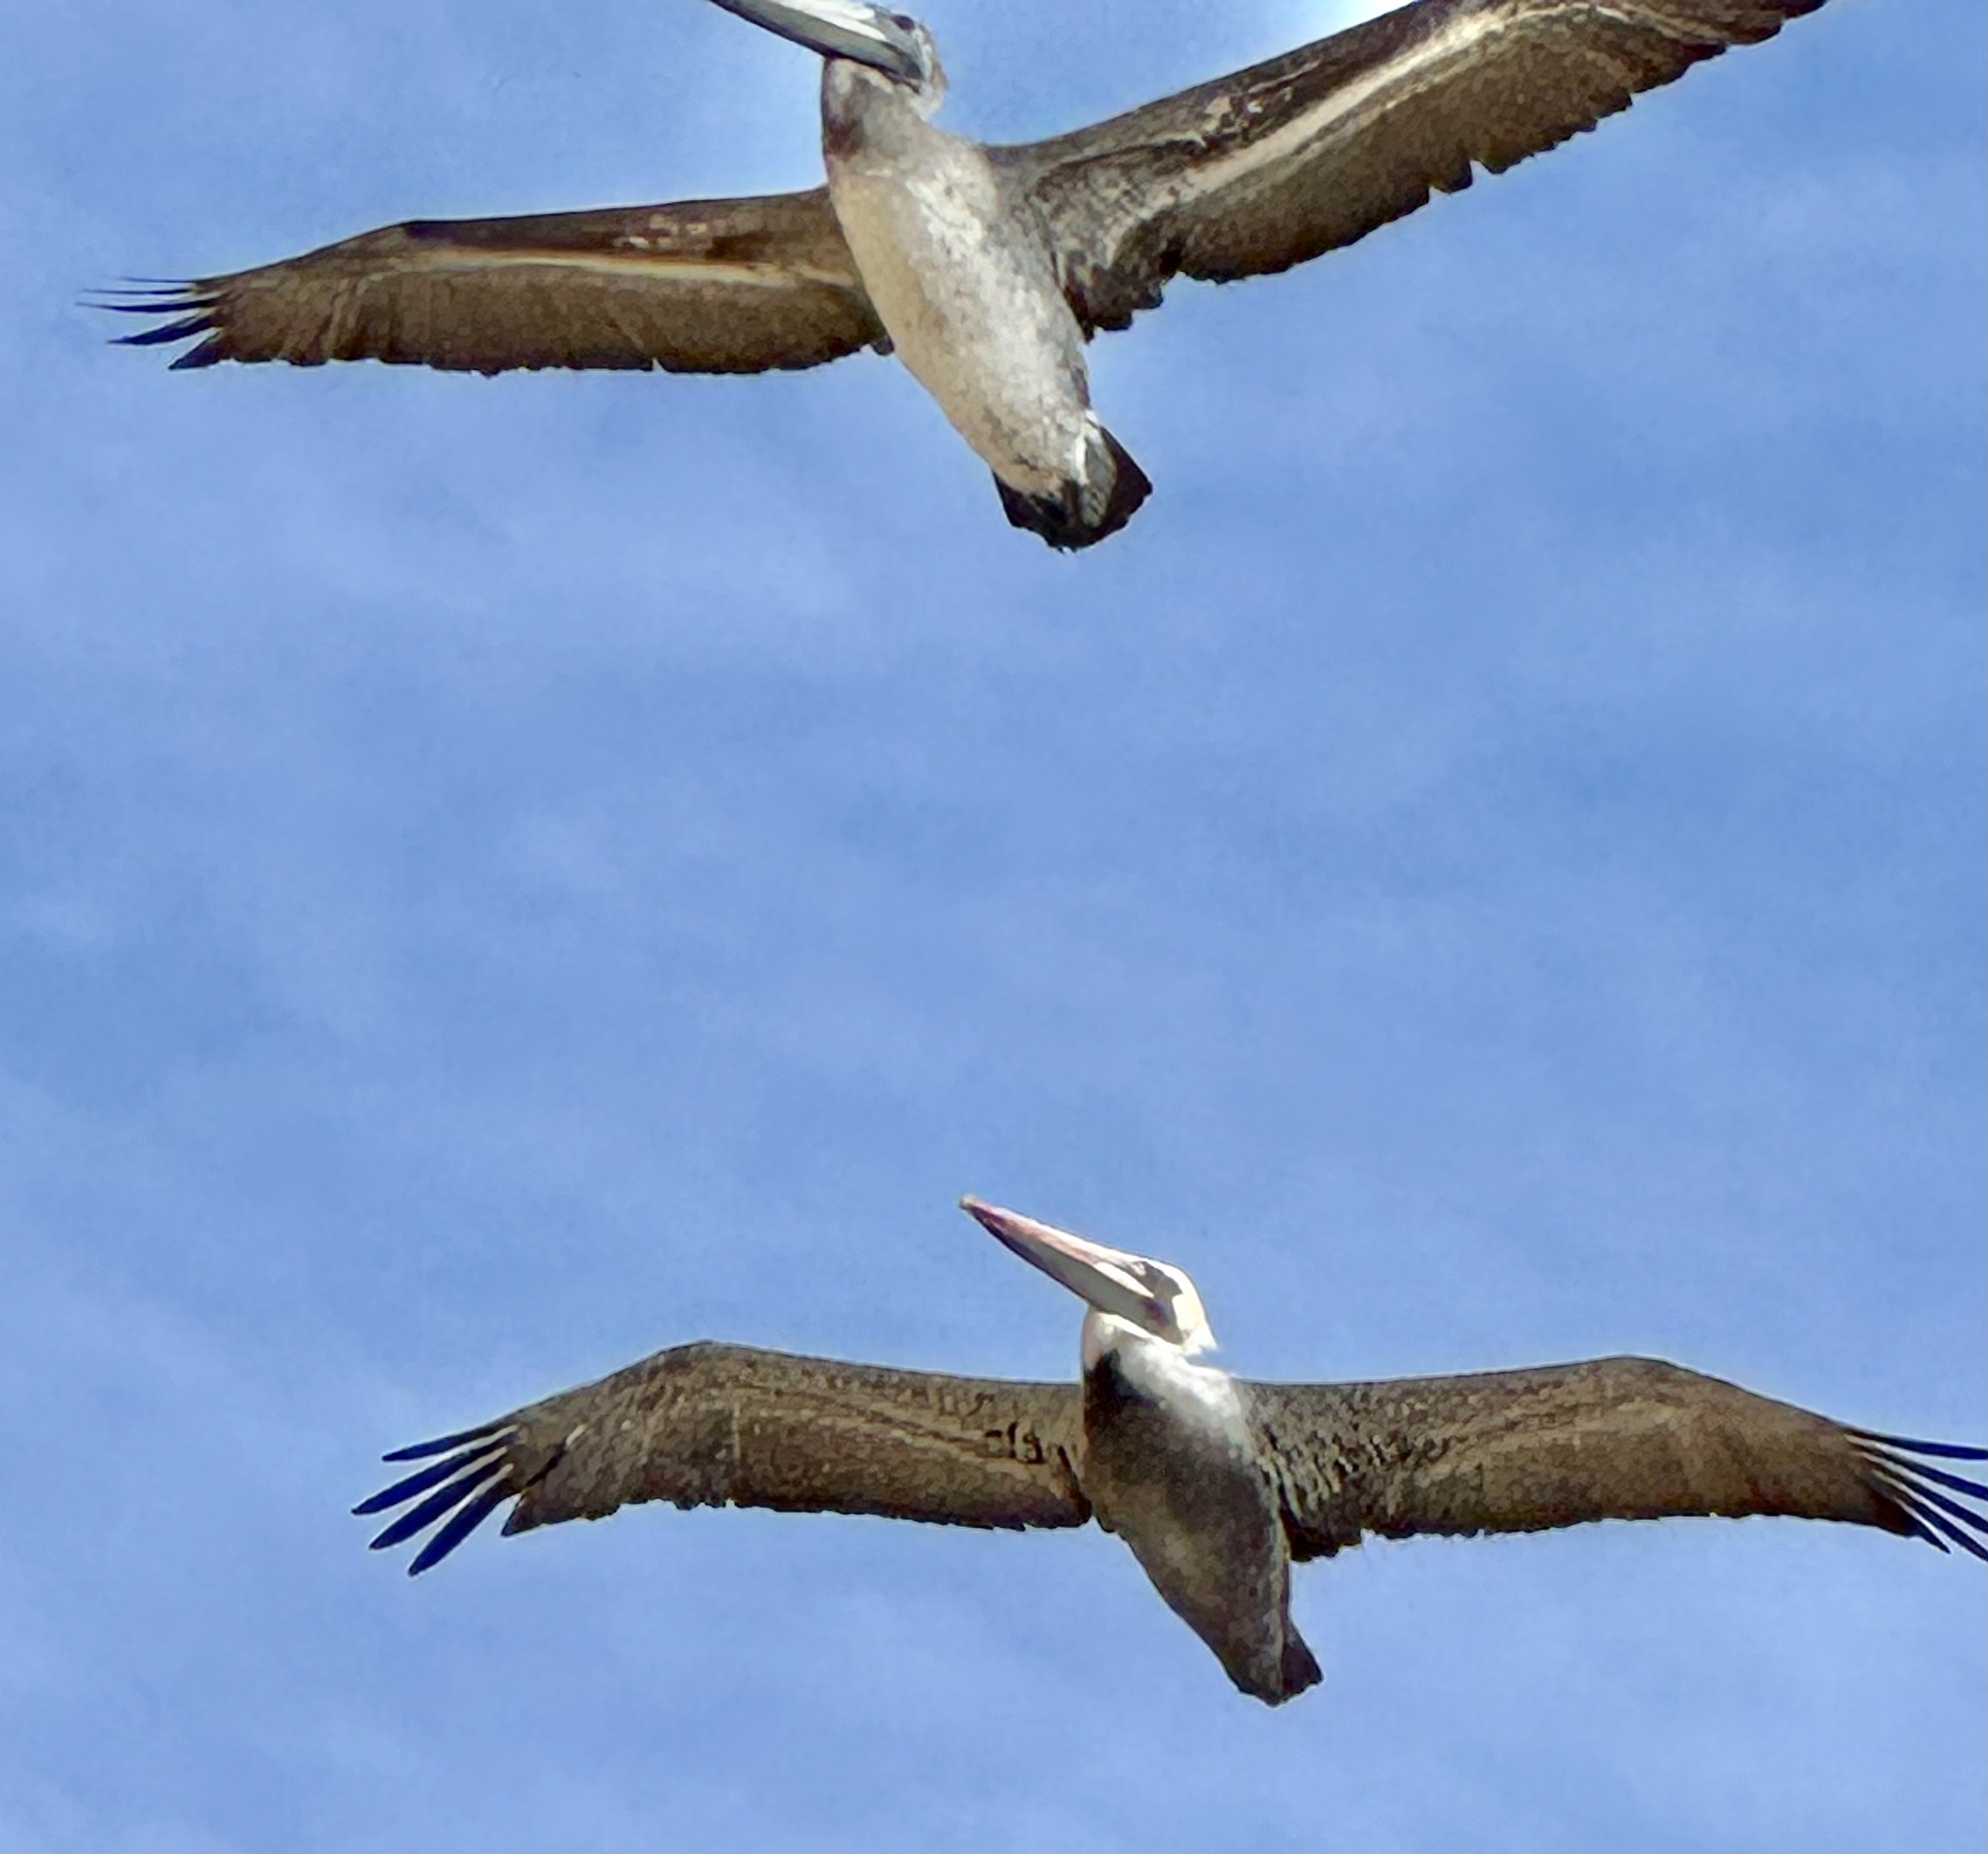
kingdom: Animalia
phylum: Chordata
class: Aves
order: Pelecaniformes
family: Pelecanidae
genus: Pelecanus
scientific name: Pelecanus occidentalis
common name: Brown pelican
